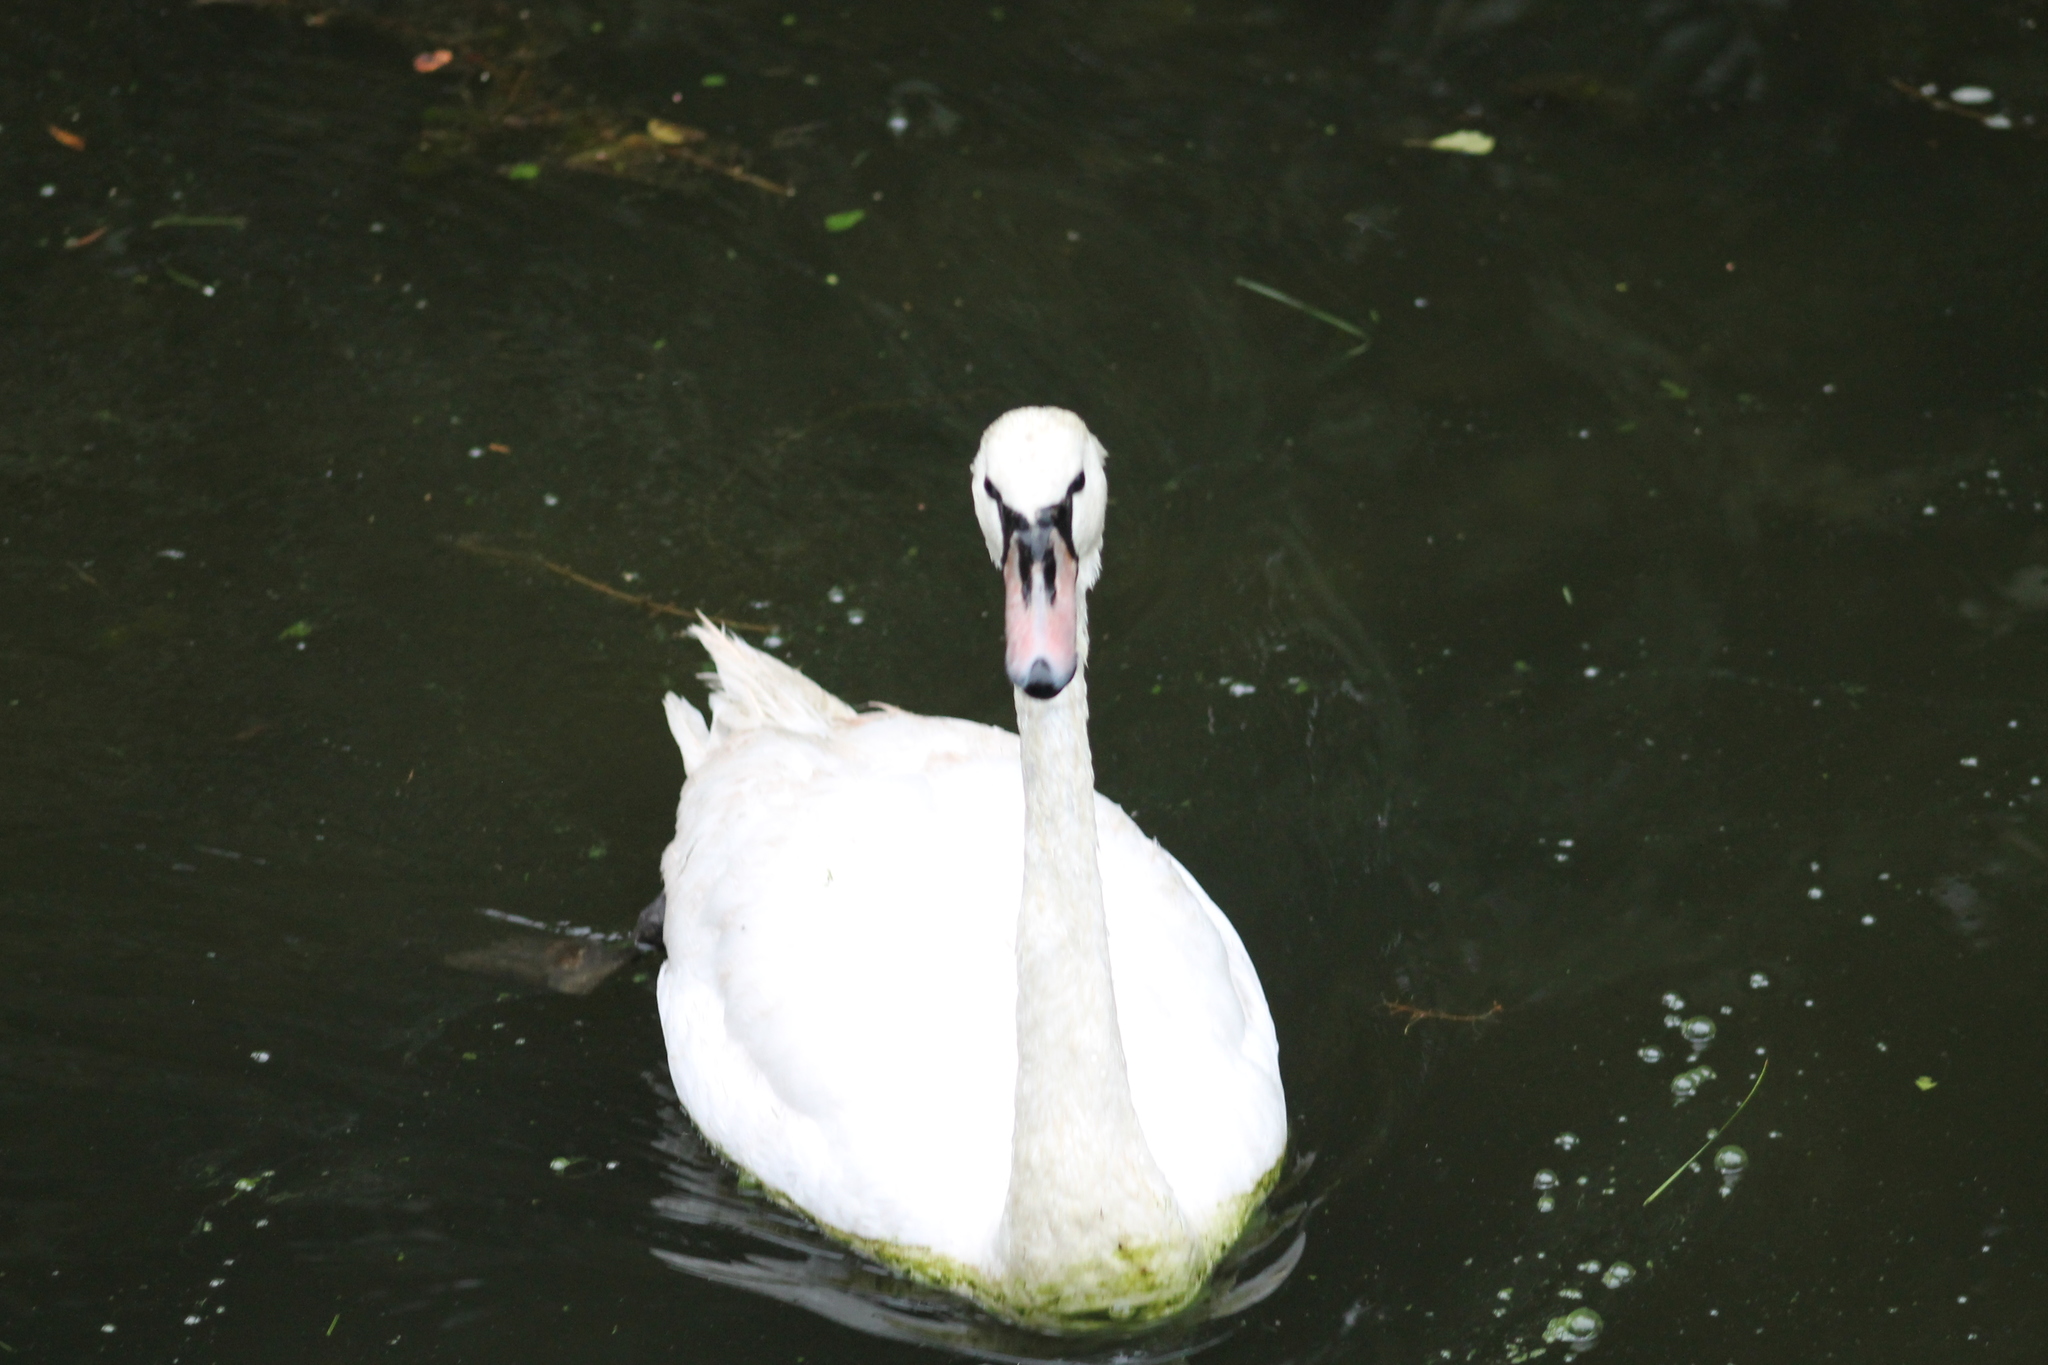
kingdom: Animalia
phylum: Chordata
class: Aves
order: Anseriformes
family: Anatidae
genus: Cygnus
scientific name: Cygnus olor
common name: Mute swan
